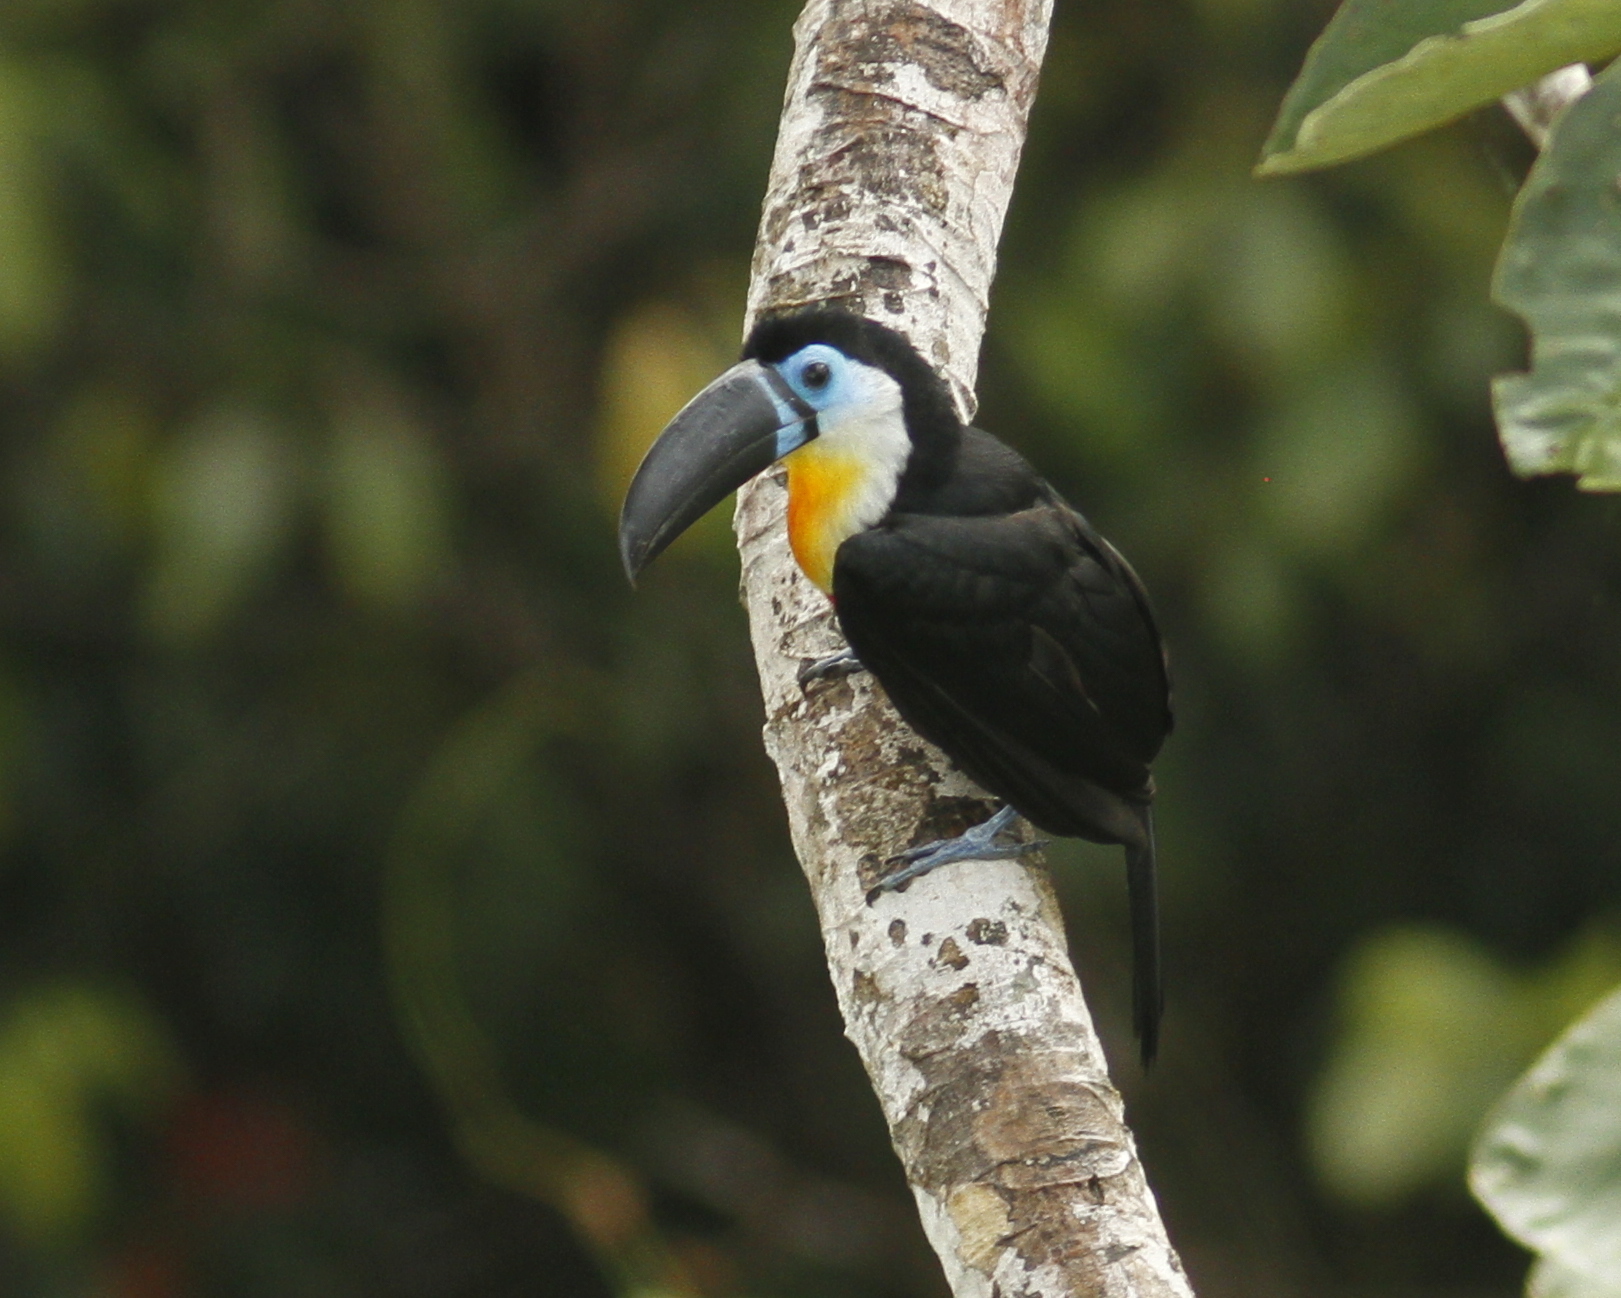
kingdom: Animalia
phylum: Chordata
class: Aves
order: Piciformes
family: Ramphastidae
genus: Ramphastos
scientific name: Ramphastos vitellinus
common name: Channel-billed toucan
